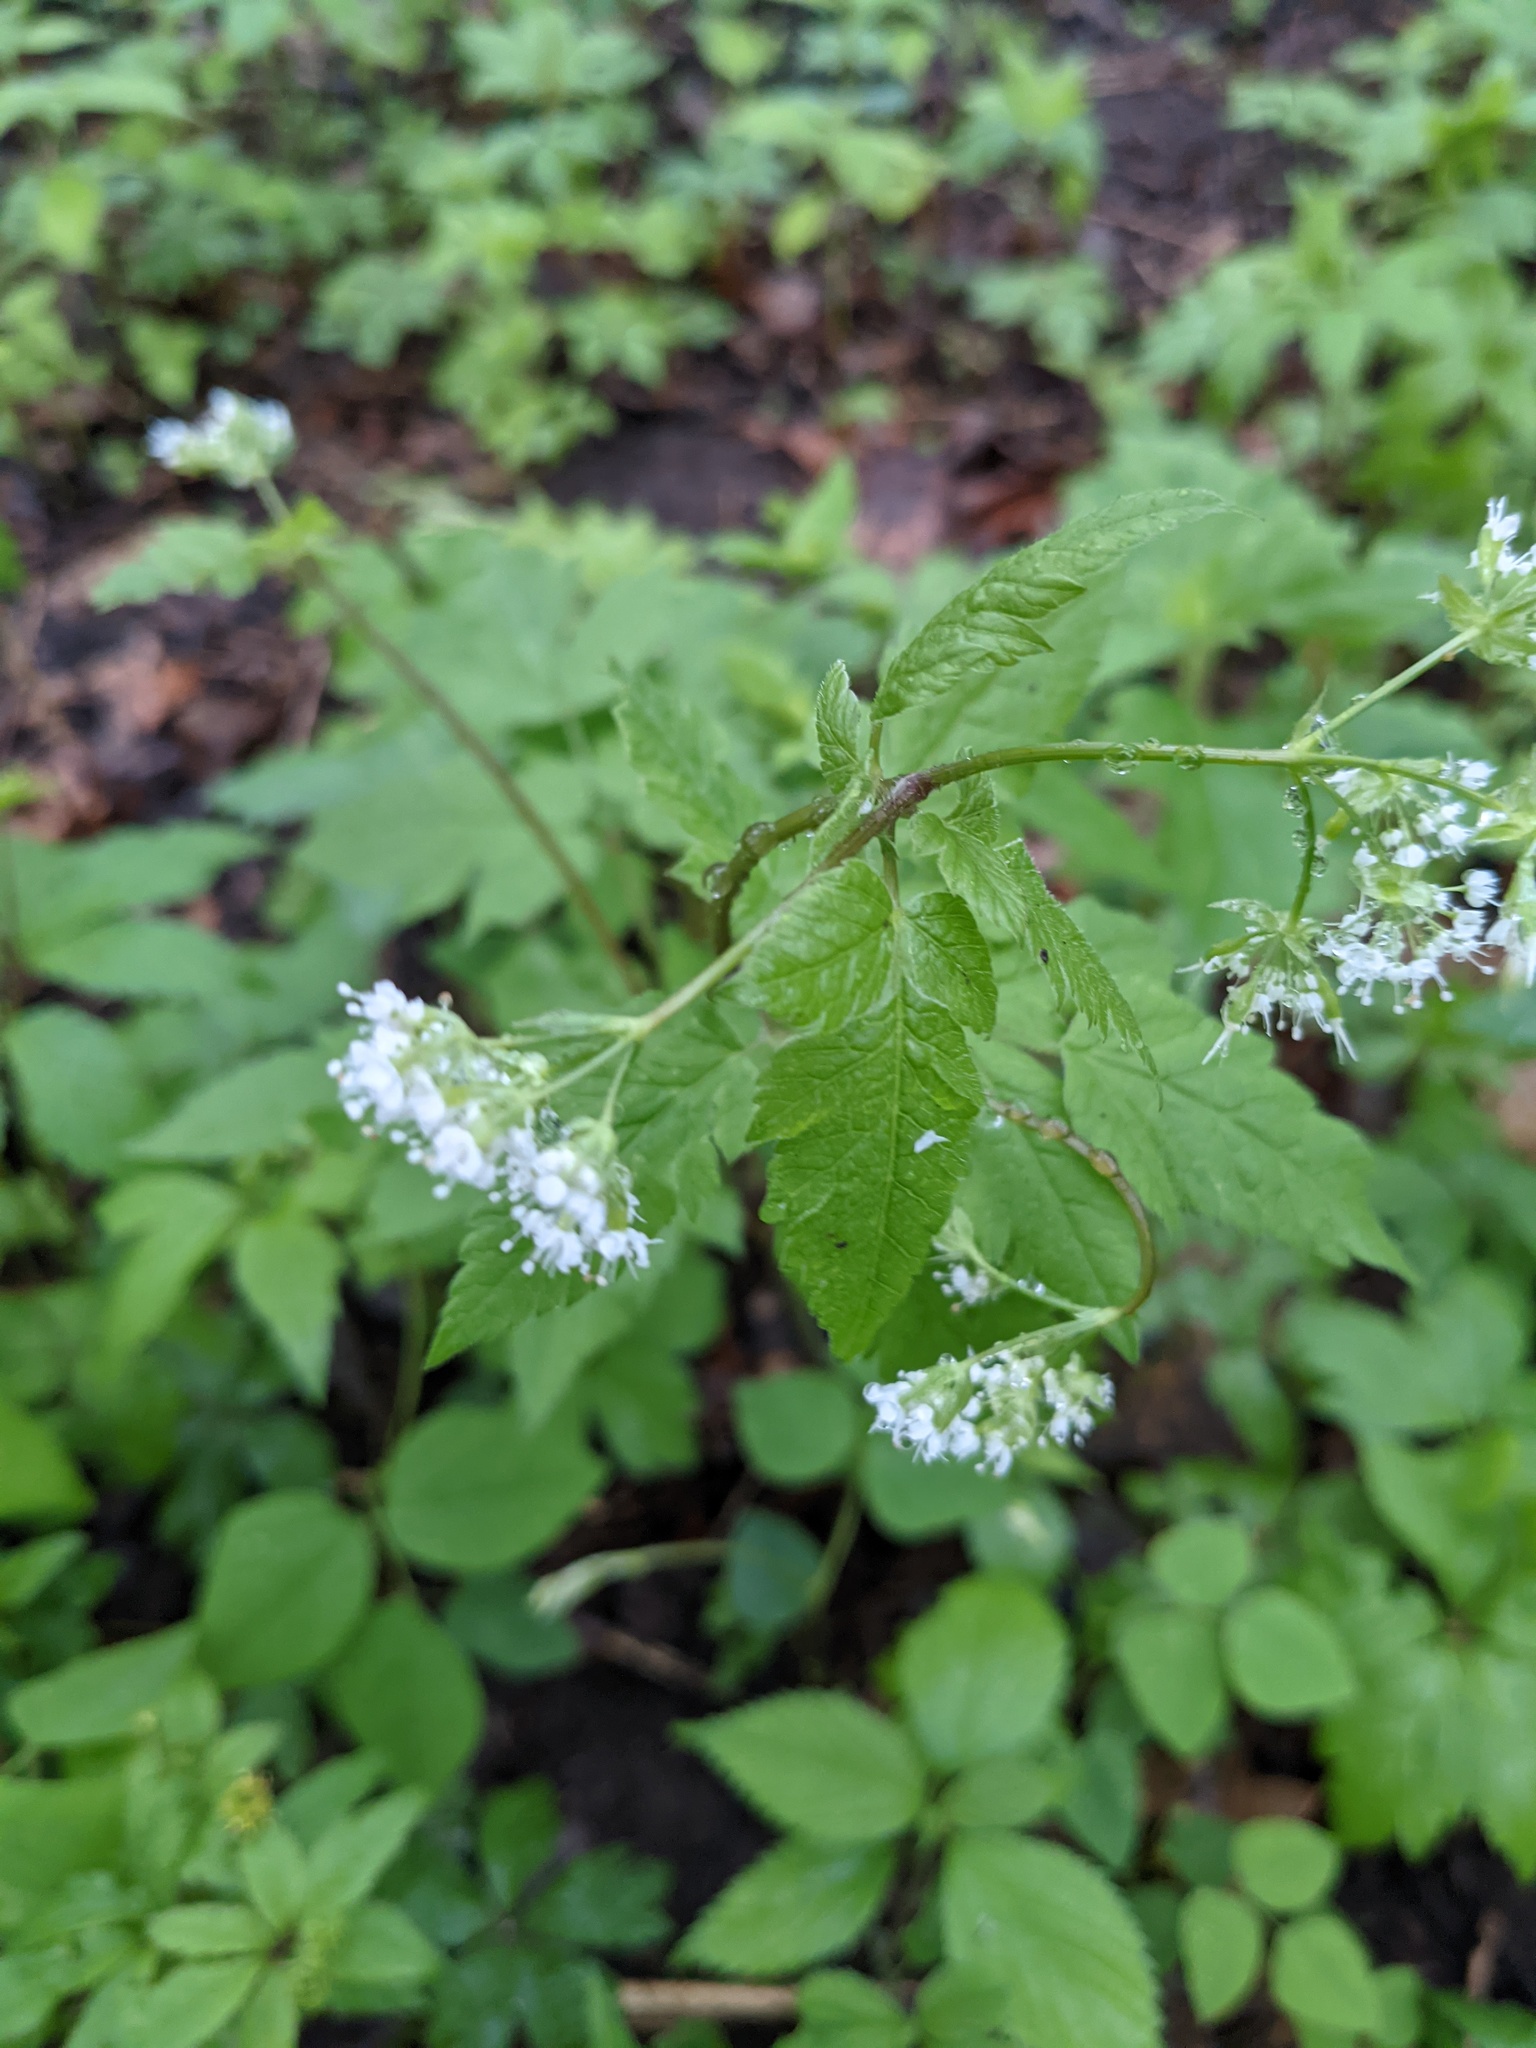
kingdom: Plantae
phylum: Tracheophyta
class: Magnoliopsida
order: Apiales
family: Apiaceae
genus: Osmorhiza
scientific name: Osmorhiza longistylis
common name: Smooth sweet cicely
